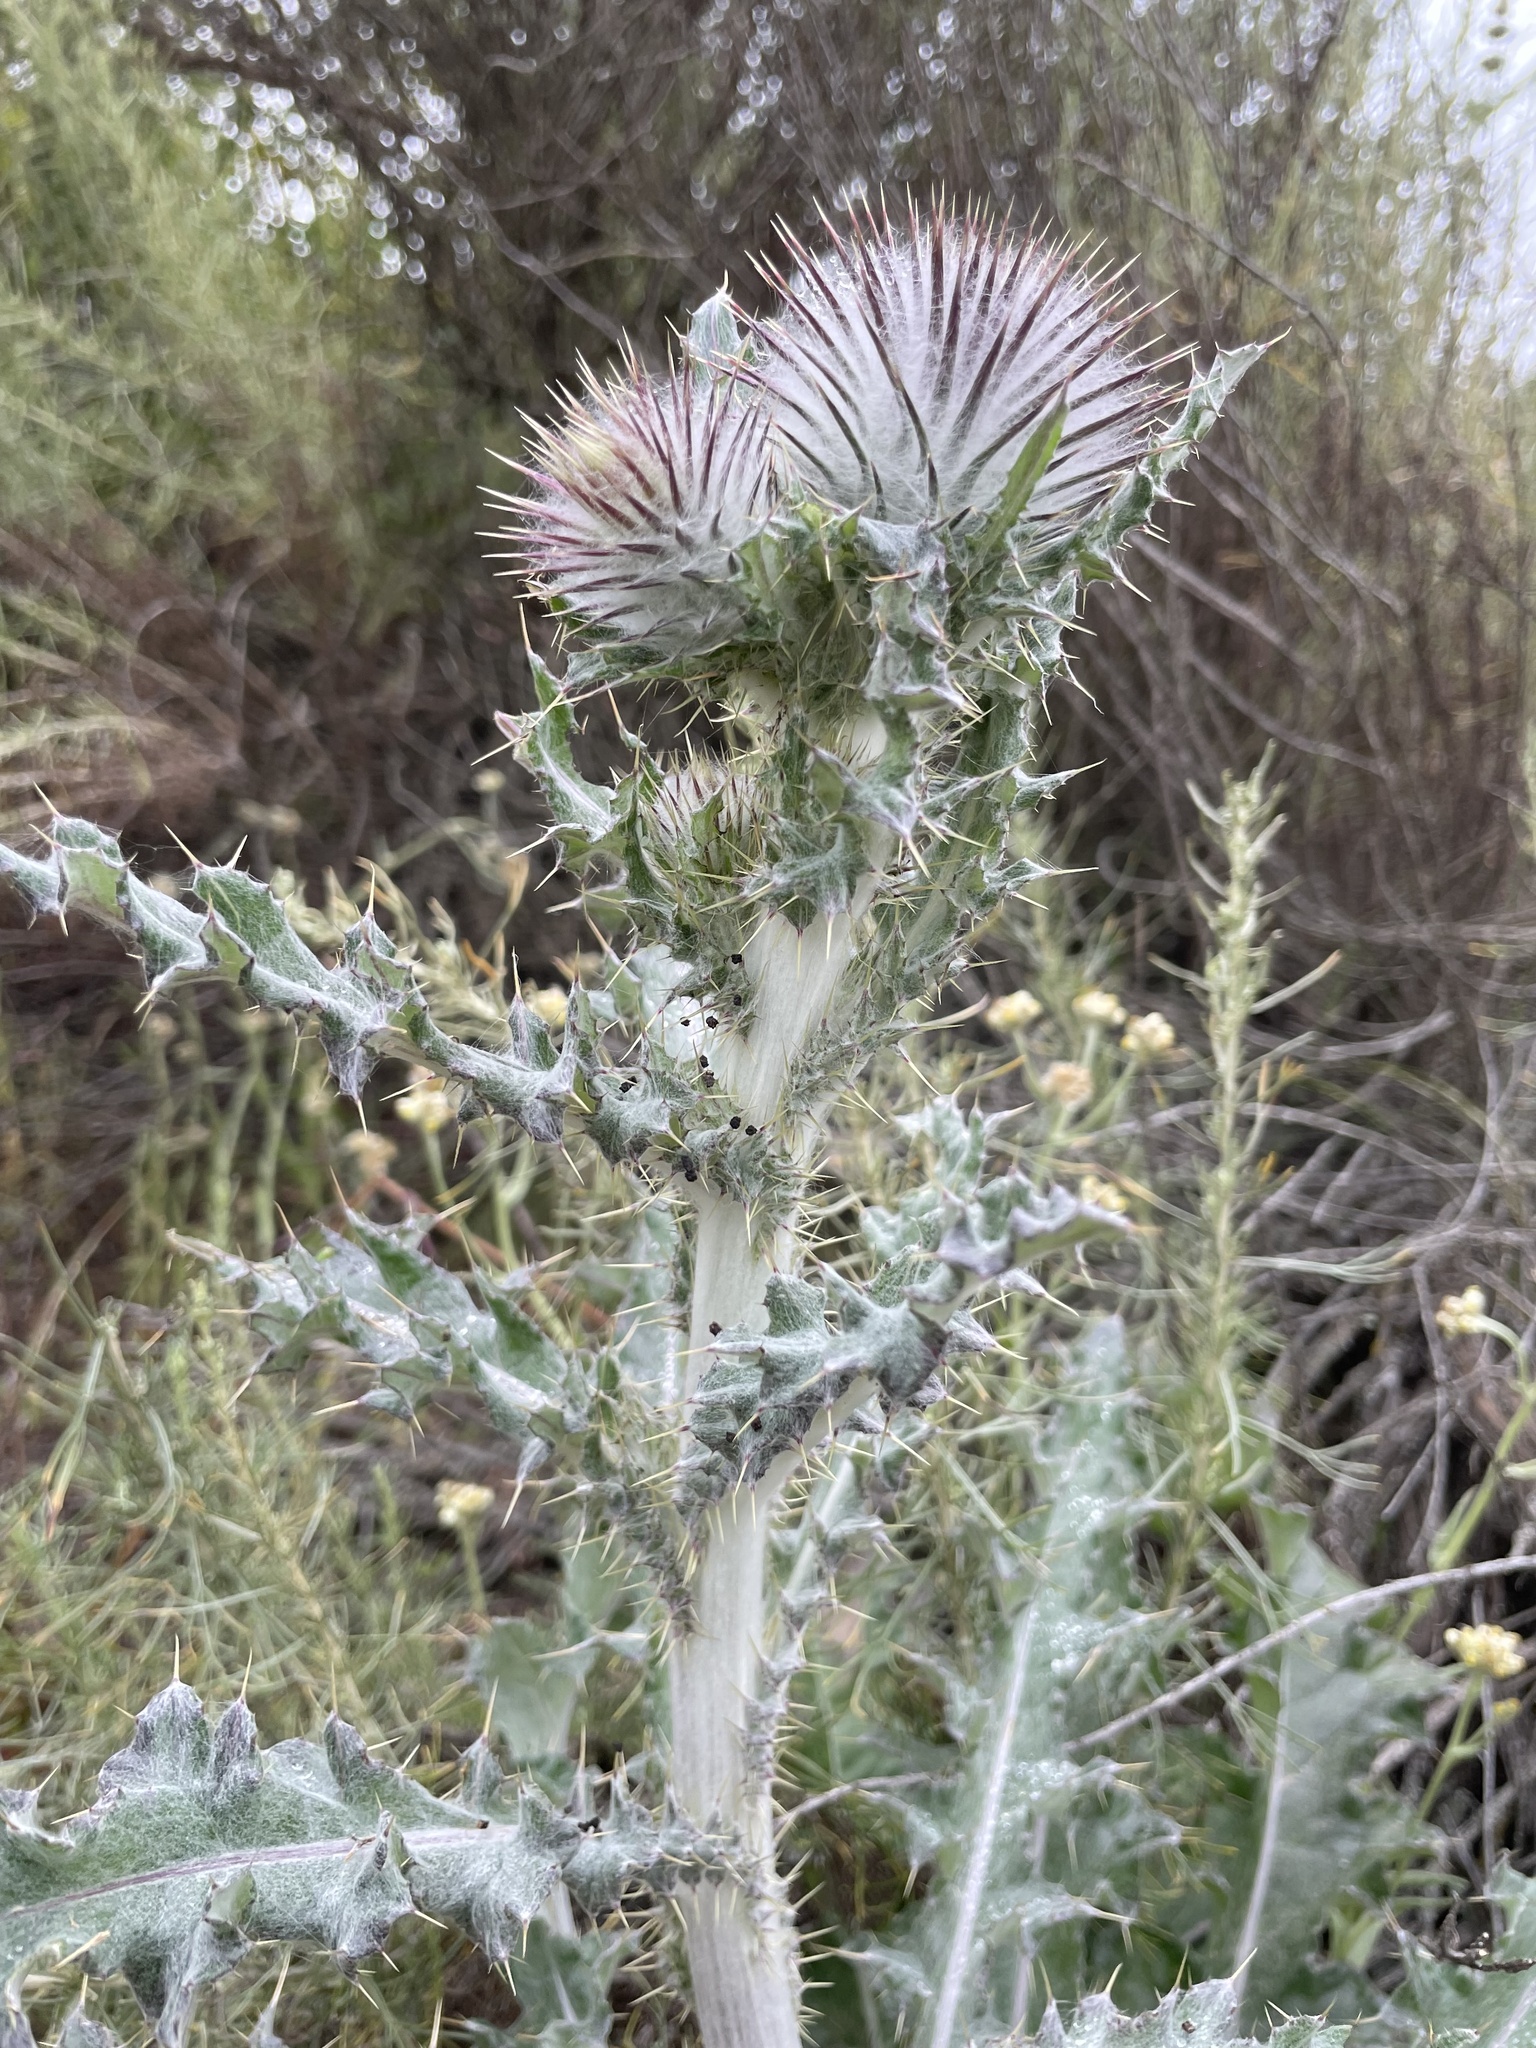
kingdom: Plantae
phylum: Tracheophyta
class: Magnoliopsida
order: Asterales
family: Asteraceae
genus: Cirsium
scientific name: Cirsium occidentale
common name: Western thistle
